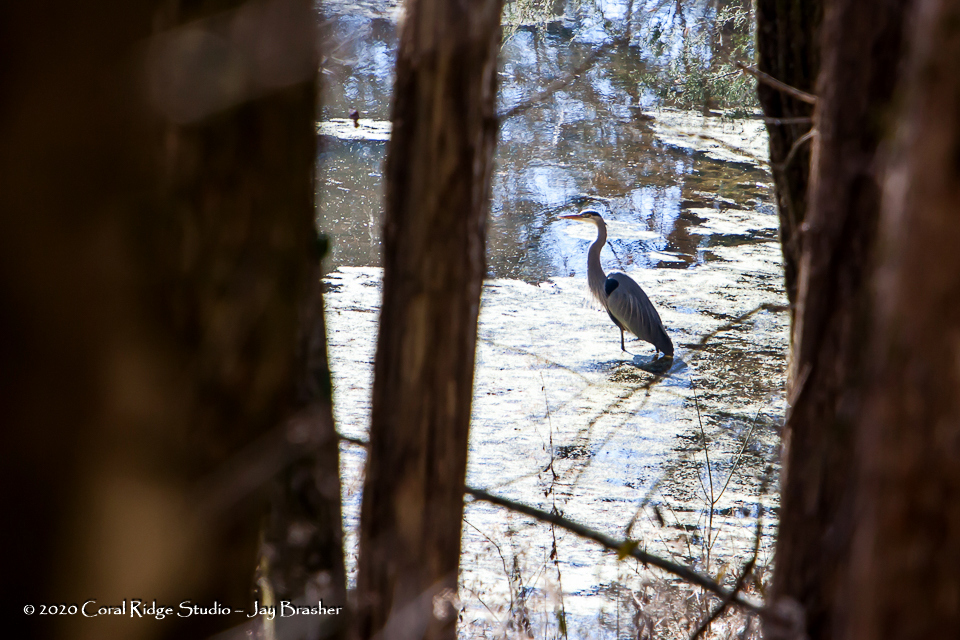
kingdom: Animalia
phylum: Chordata
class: Aves
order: Pelecaniformes
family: Ardeidae
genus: Ardea
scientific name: Ardea herodias
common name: Great blue heron
